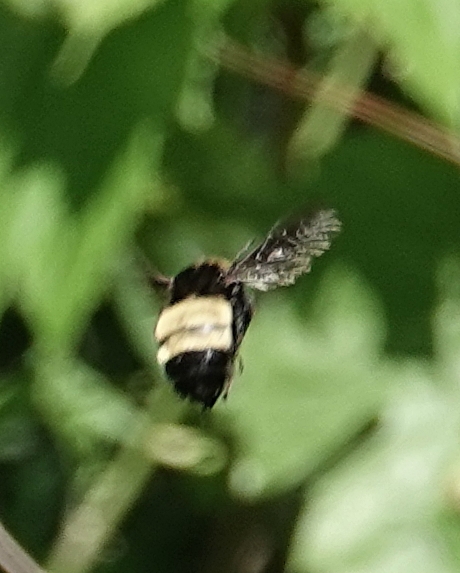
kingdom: Animalia
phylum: Arthropoda
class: Insecta
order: Hymenoptera
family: Apidae
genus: Bombus
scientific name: Bombus pensylvanicus
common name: Bumble bee
